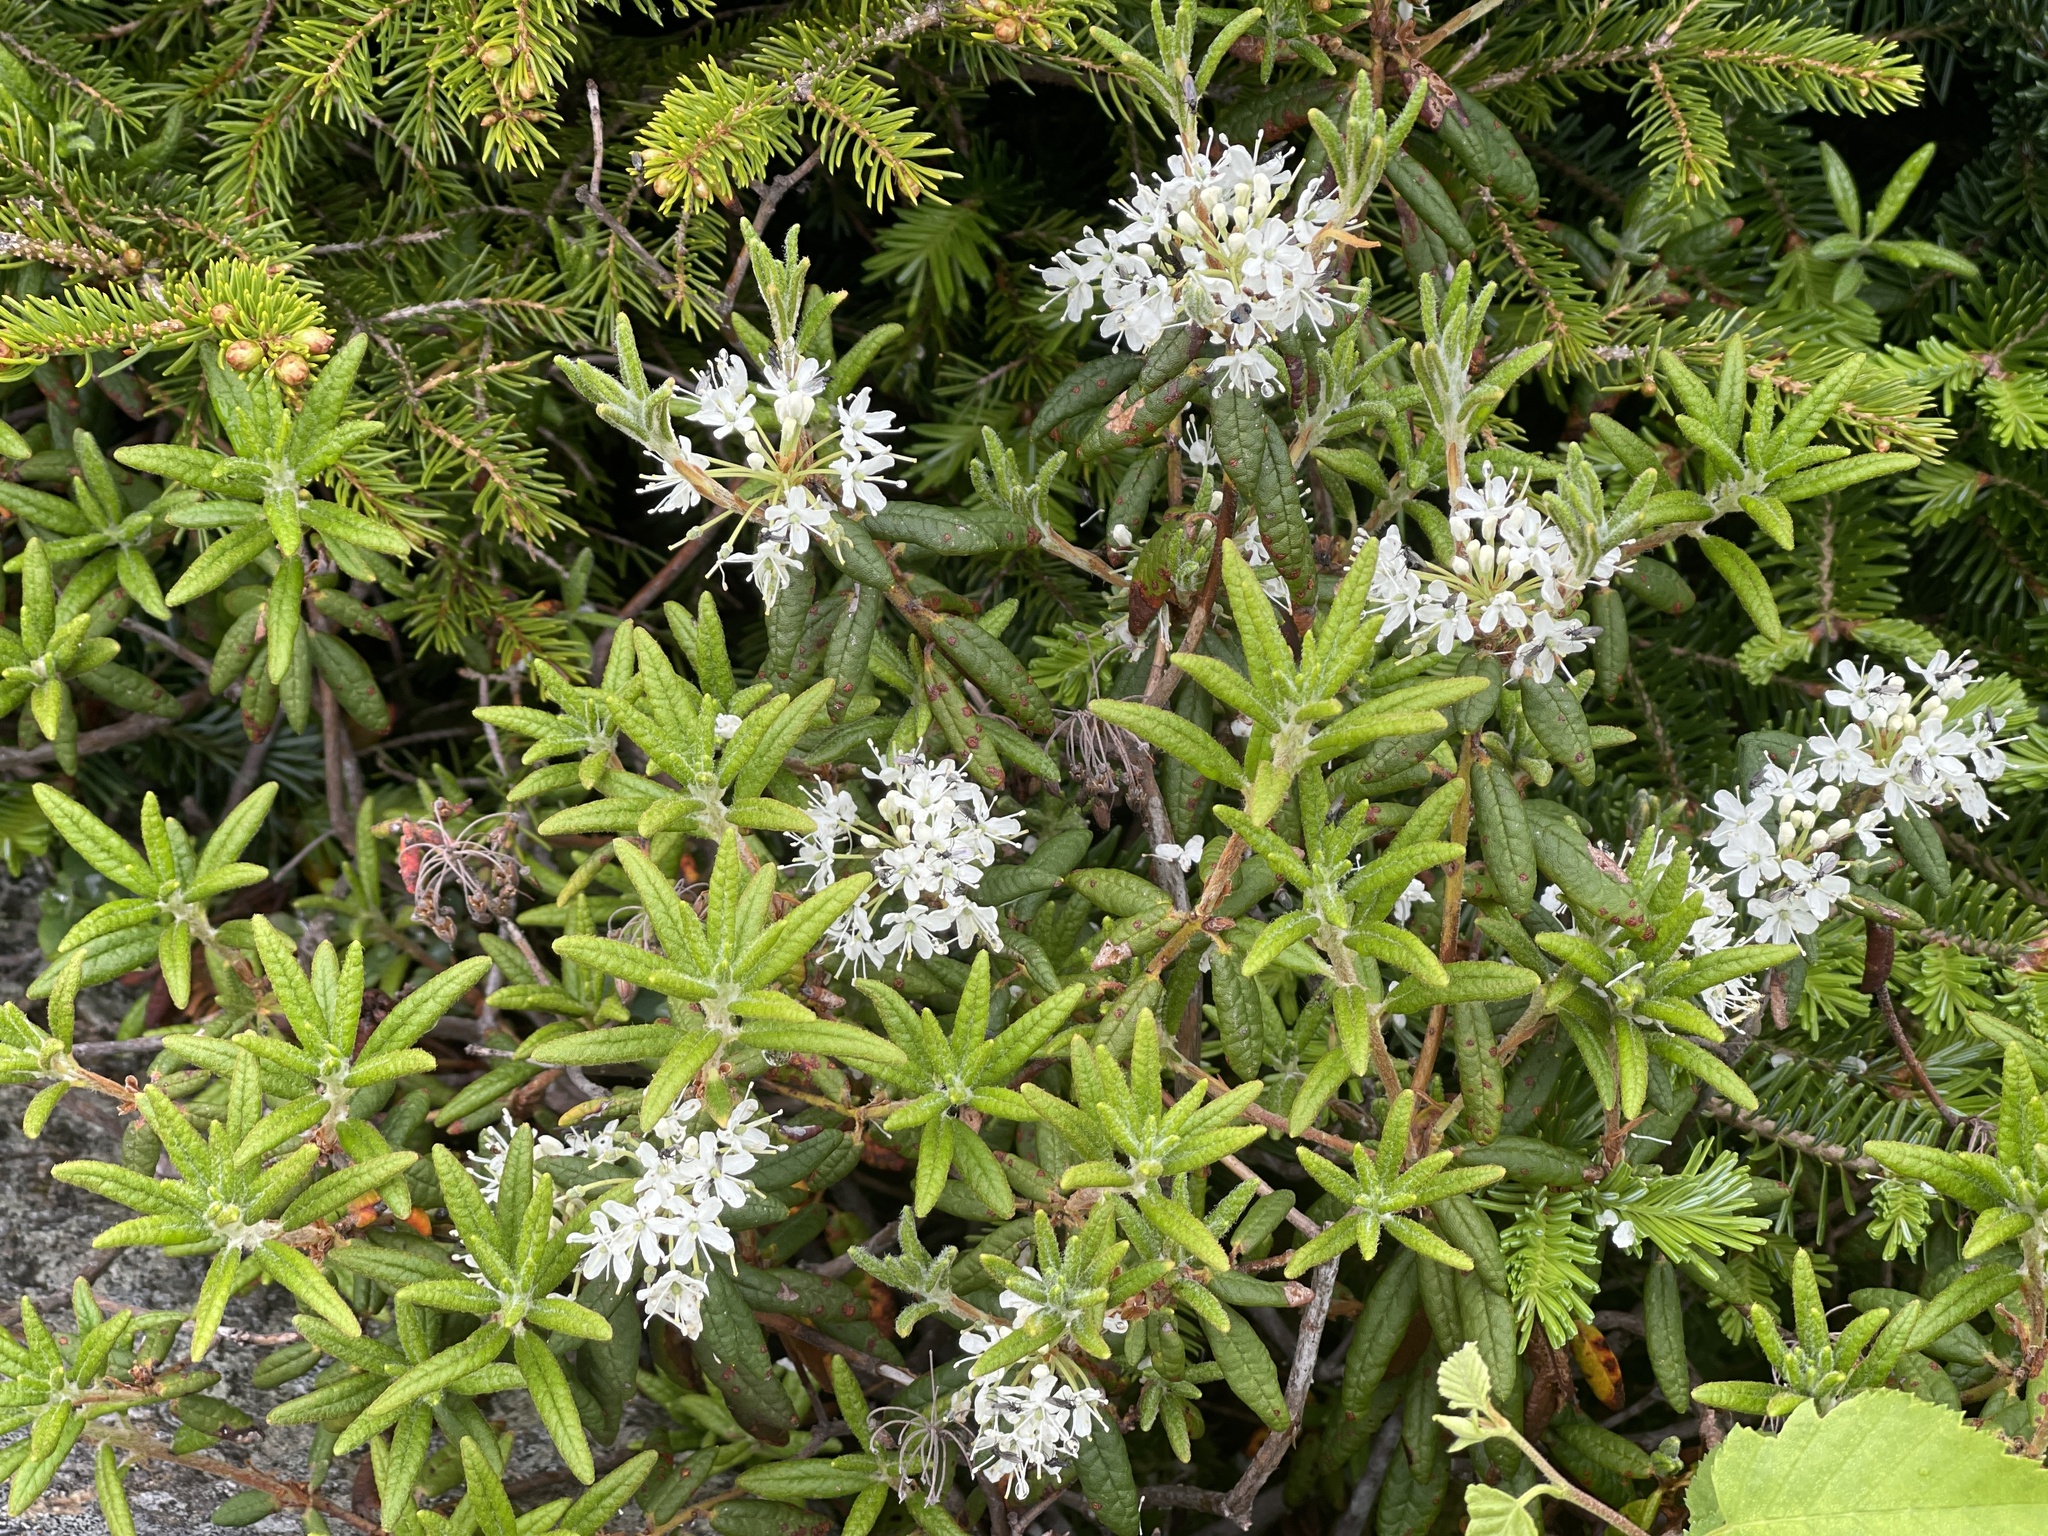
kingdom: Plantae
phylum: Tracheophyta
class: Magnoliopsida
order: Ericales
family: Ericaceae
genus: Rhododendron
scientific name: Rhododendron groenlandicum
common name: Bog labrador tea
